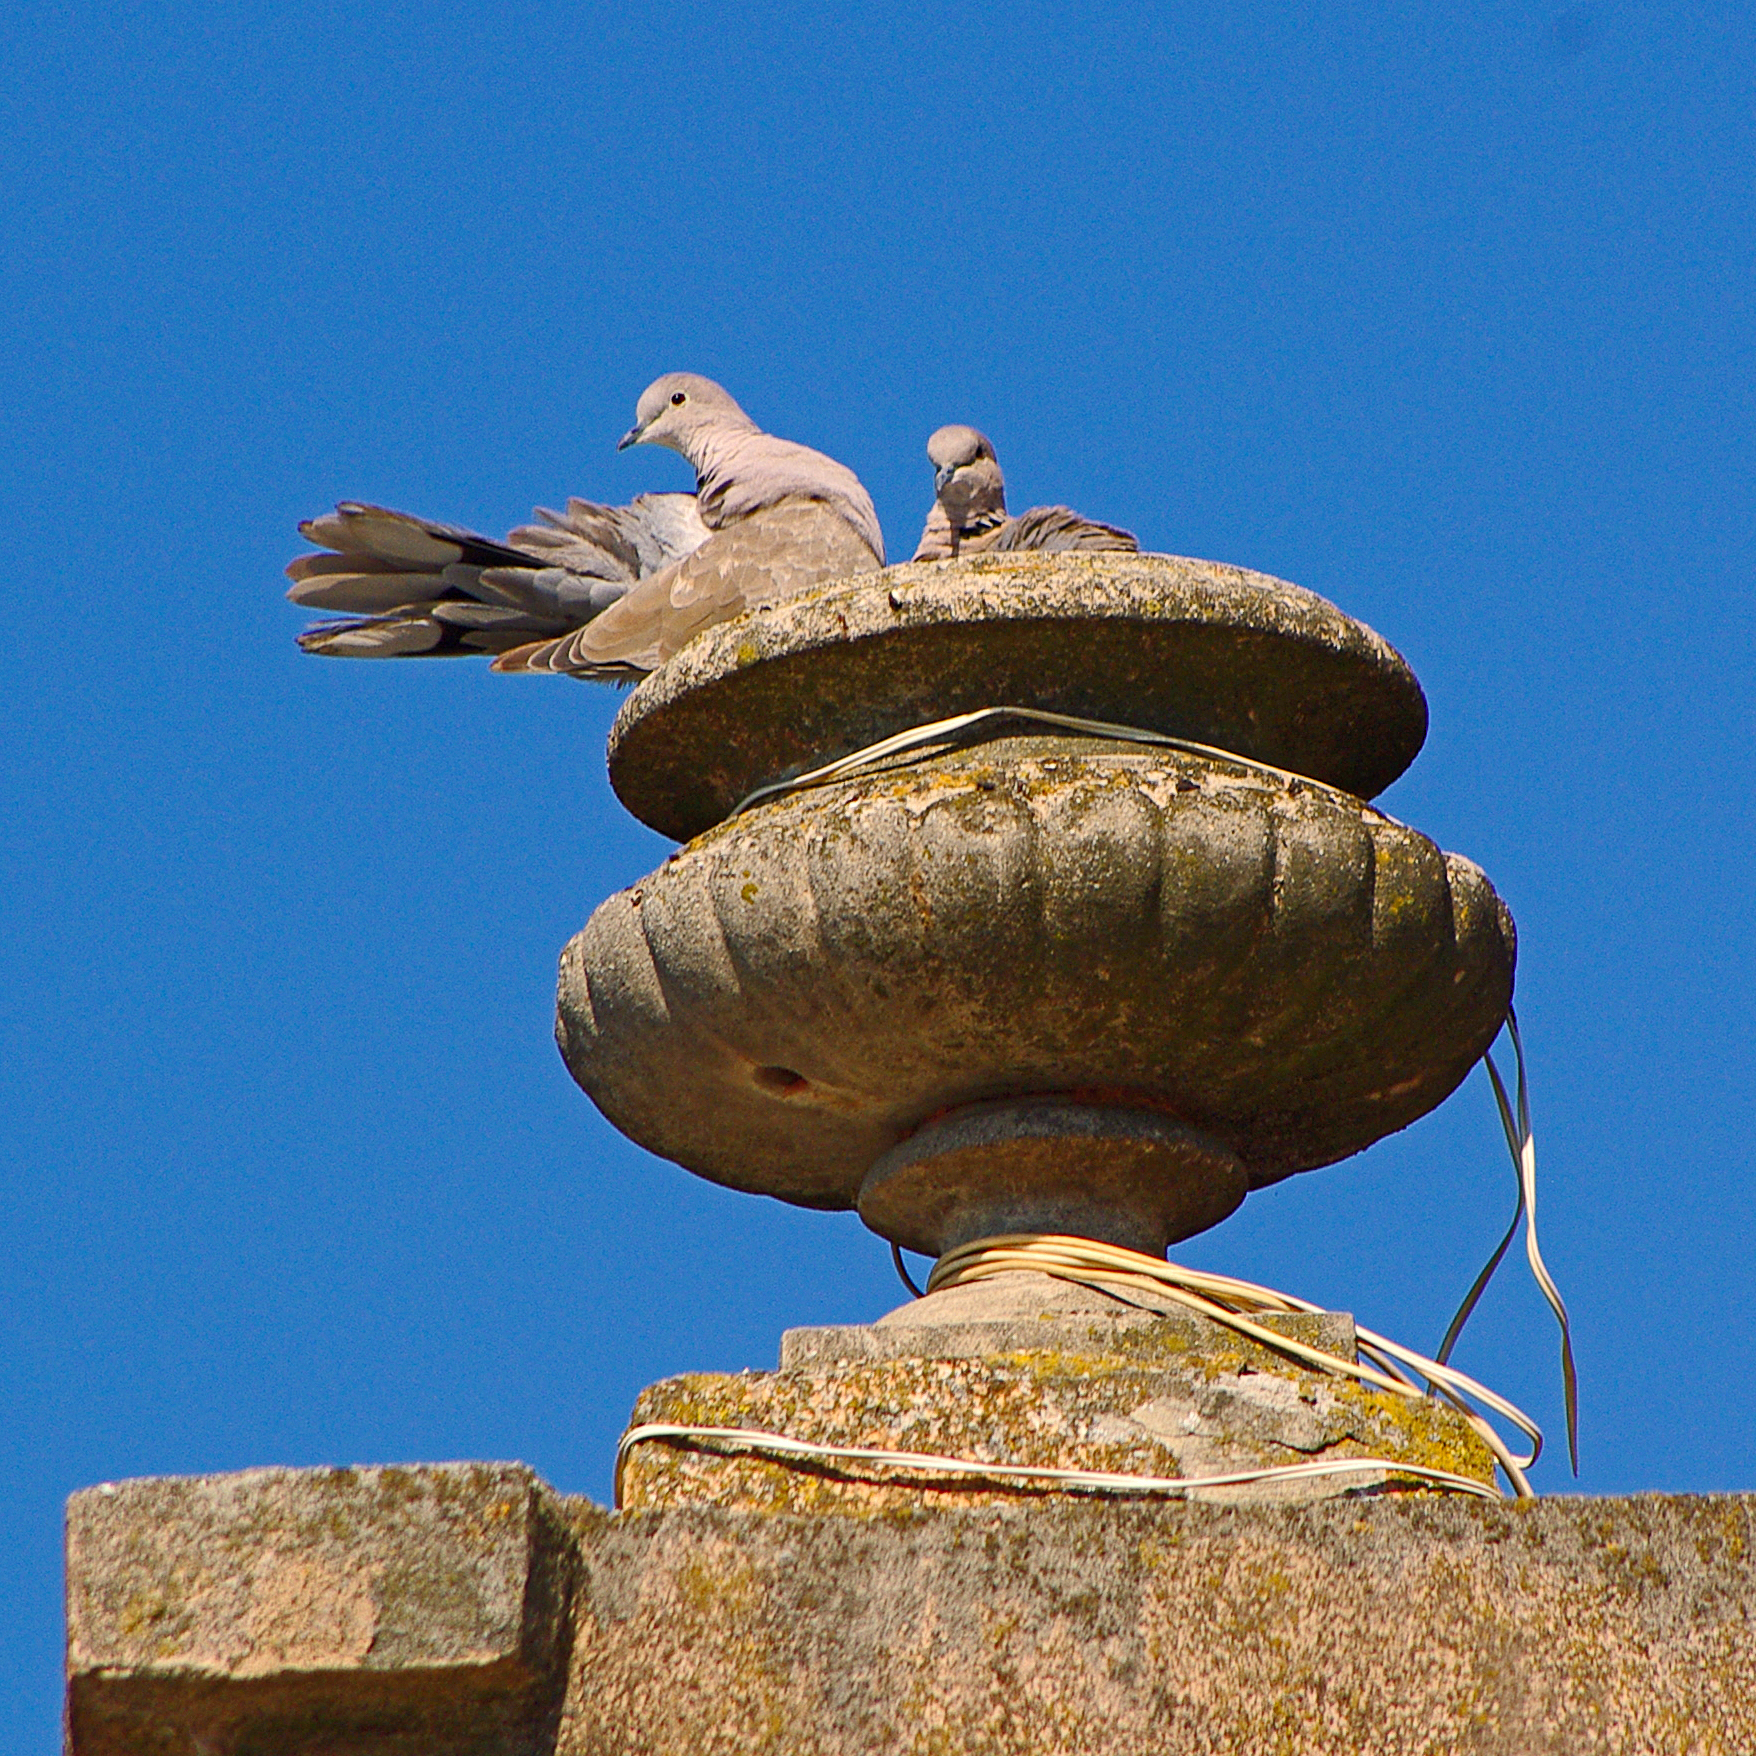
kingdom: Animalia
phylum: Chordata
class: Aves
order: Columbiformes
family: Columbidae
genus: Streptopelia
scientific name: Streptopelia decaocto
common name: Eurasian collared dove
